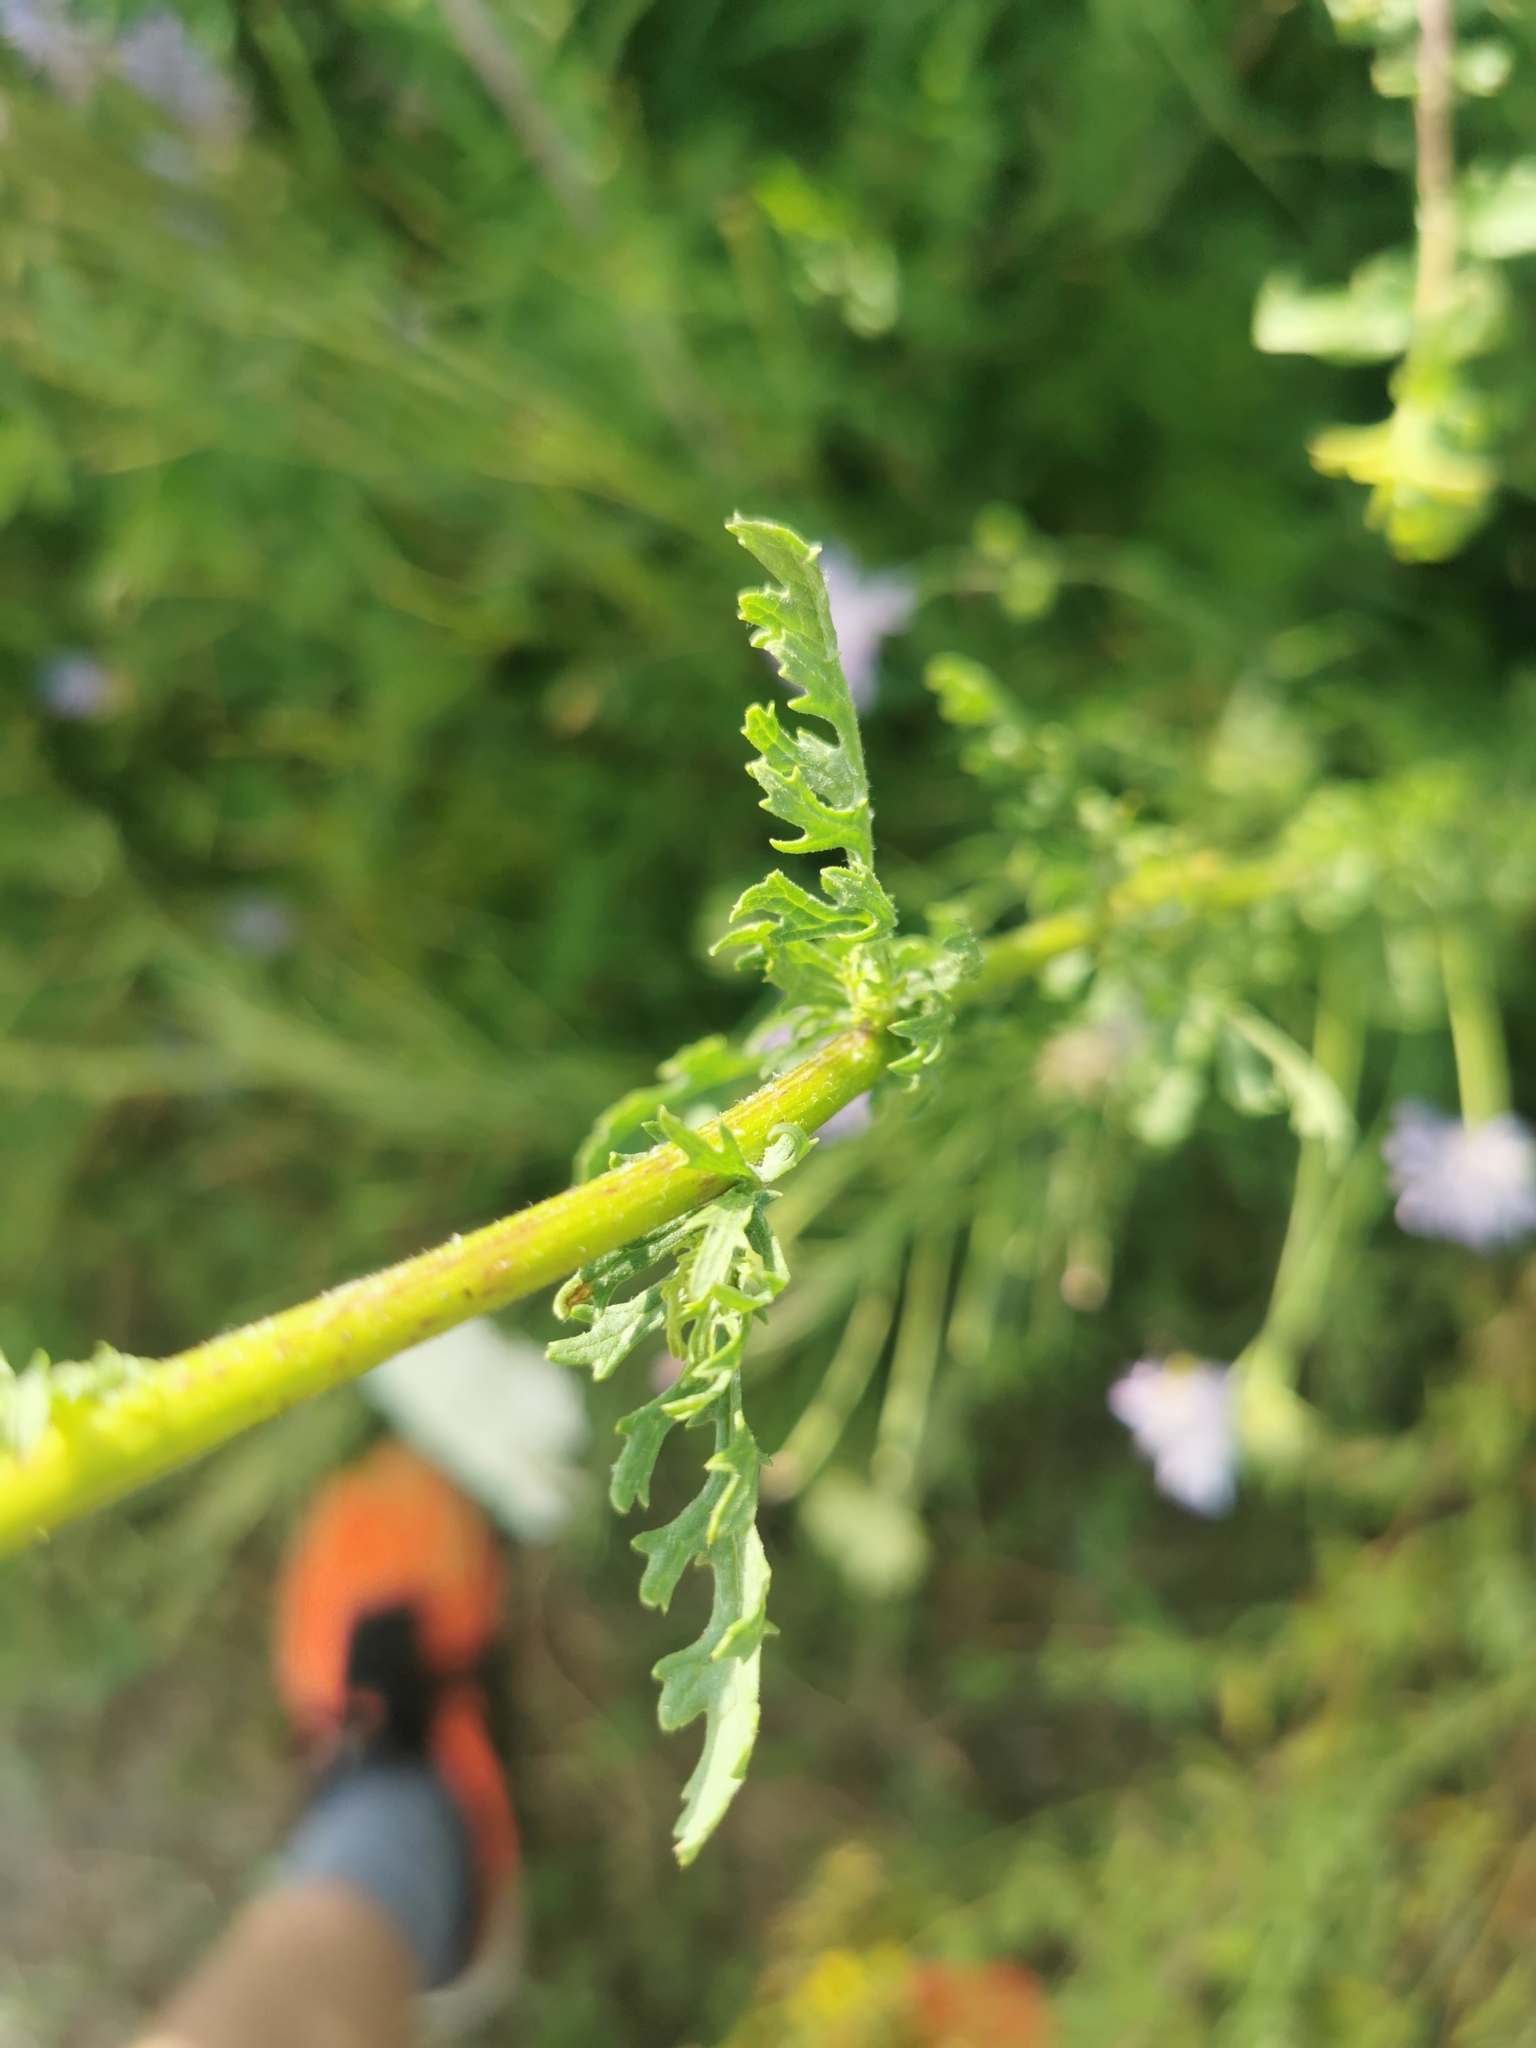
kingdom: Plantae
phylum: Tracheophyta
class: Magnoliopsida
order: Asterales
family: Asteraceae
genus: Jacobaea
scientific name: Jacobaea vulgaris
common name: Stinking willie
